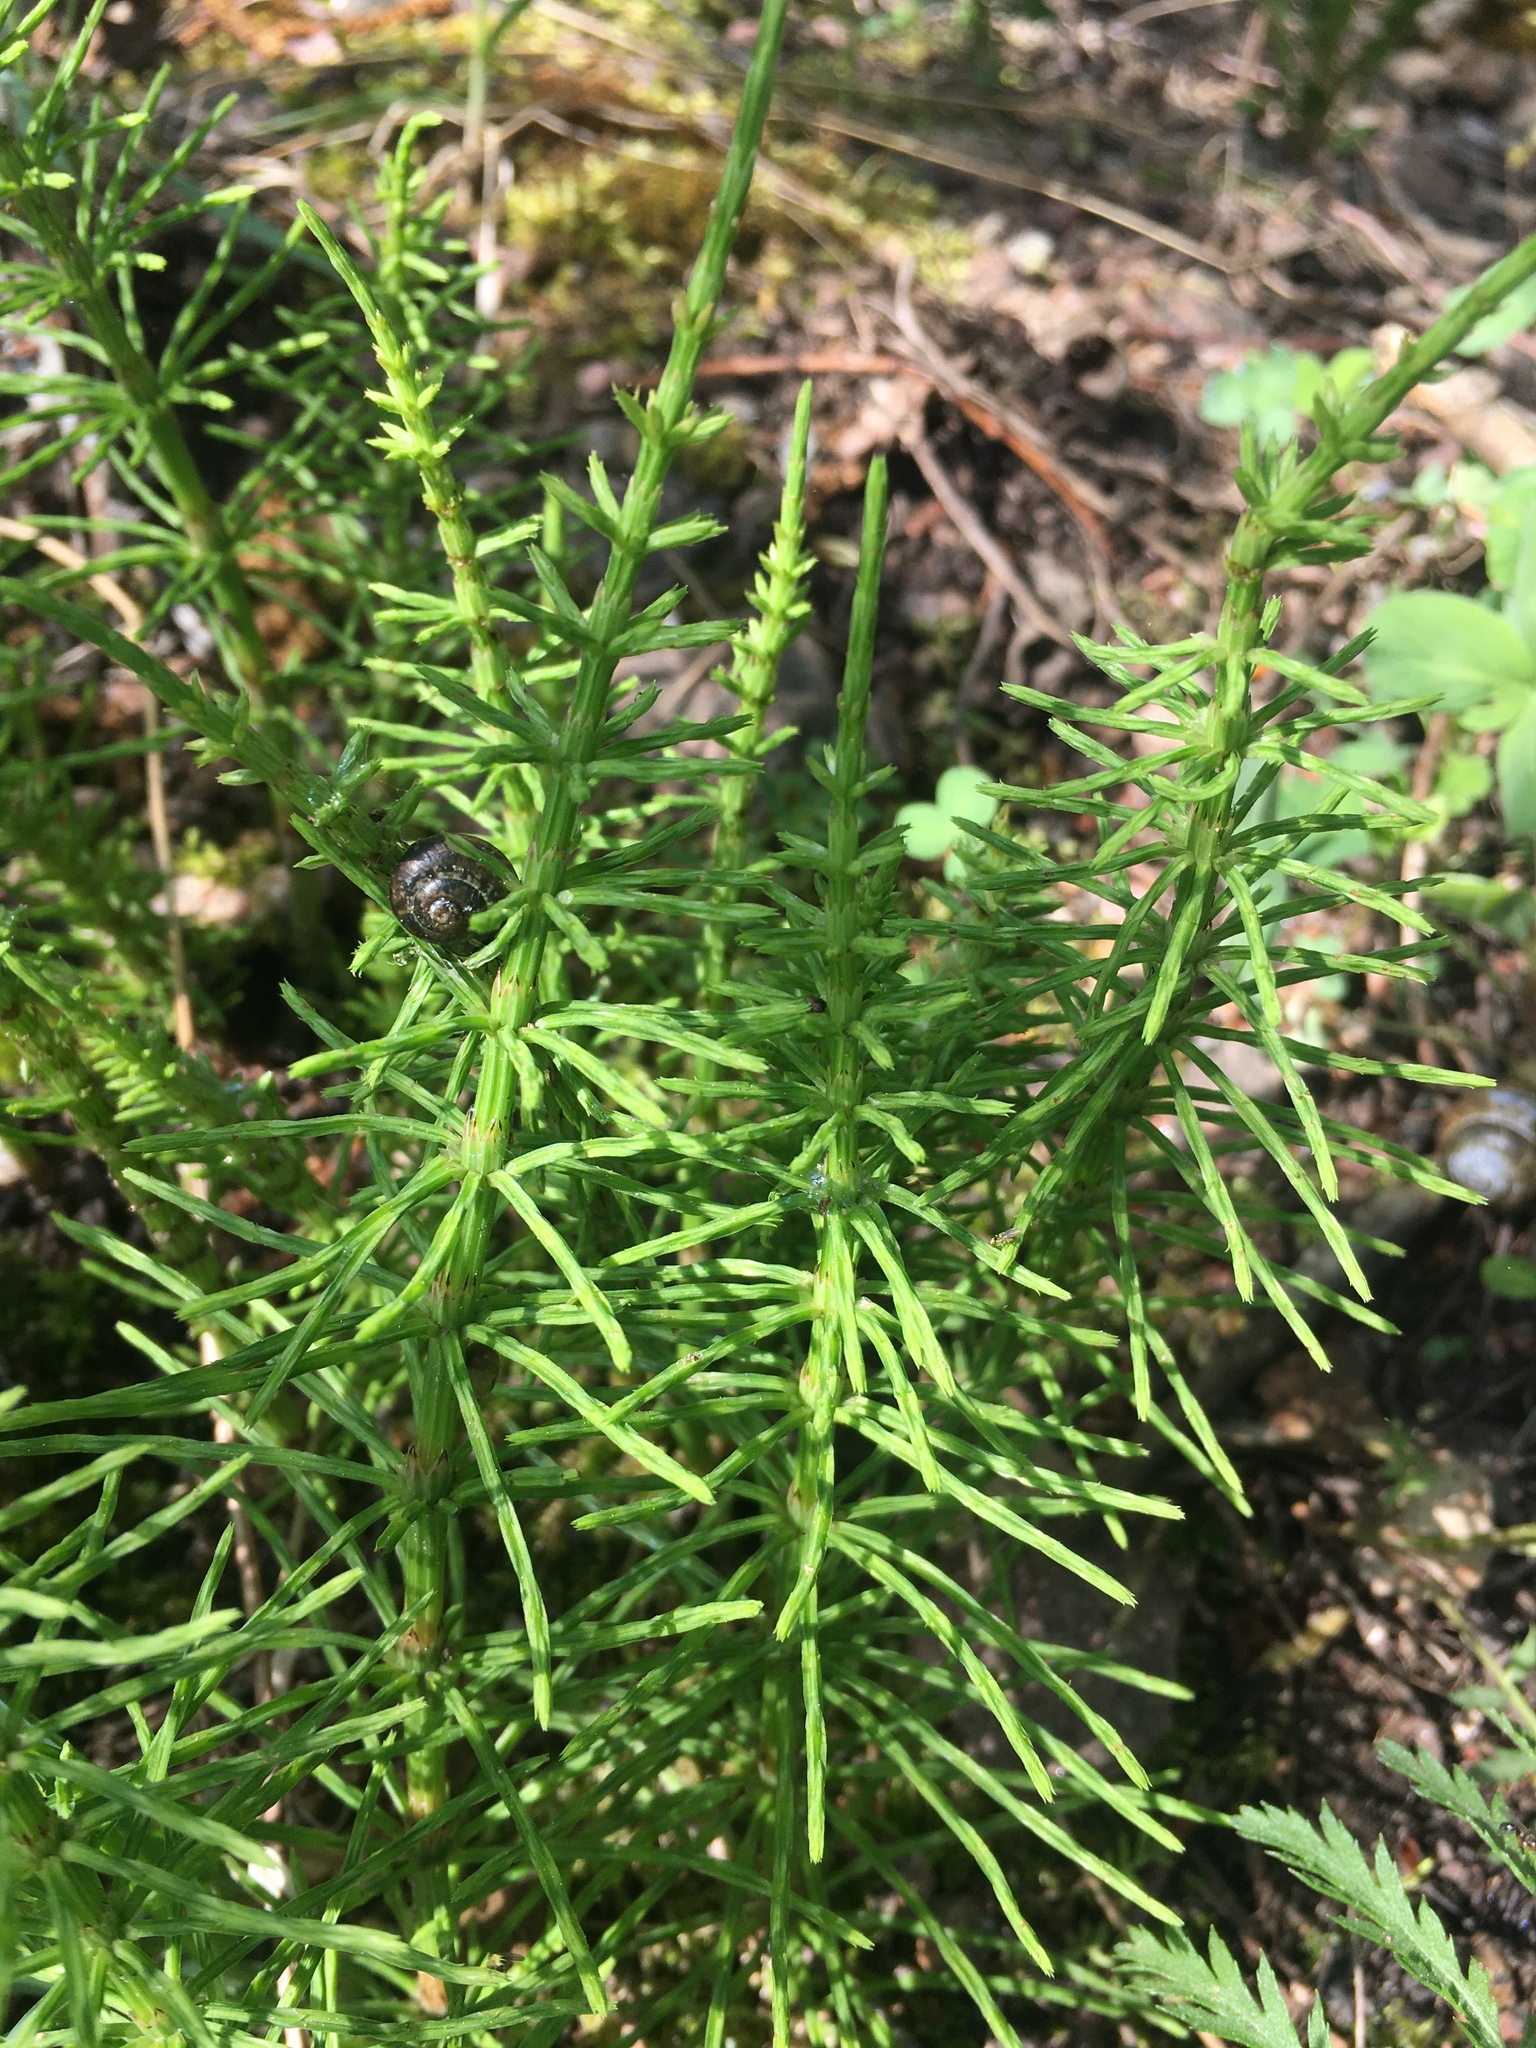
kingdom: Plantae
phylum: Tracheophyta
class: Polypodiopsida
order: Equisetales
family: Equisetaceae
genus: Equisetum
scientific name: Equisetum arvense
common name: Field horsetail
